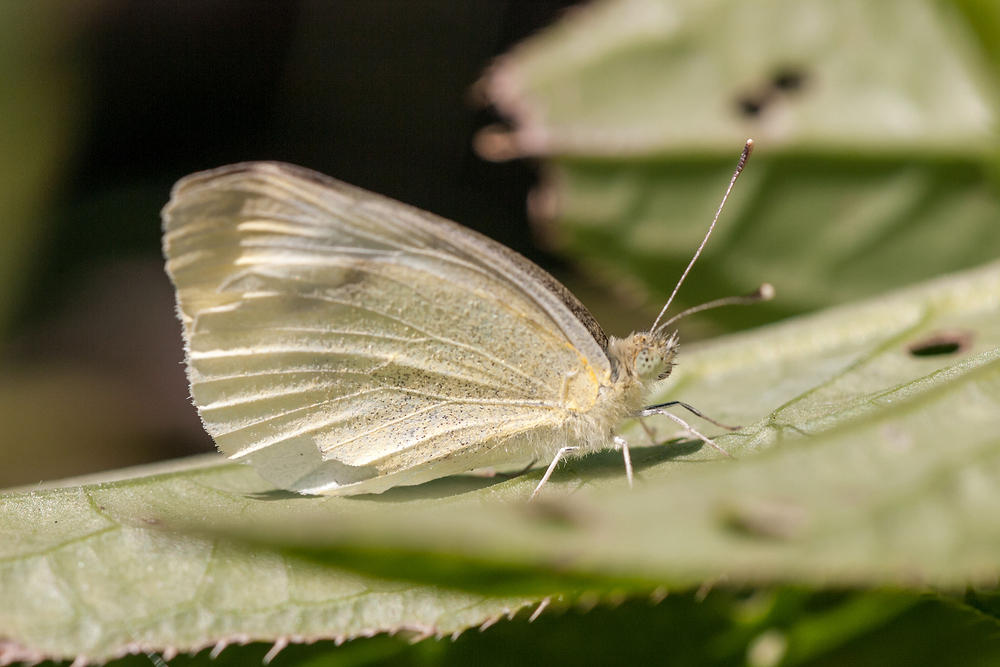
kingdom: Animalia
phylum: Arthropoda
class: Insecta
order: Lepidoptera
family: Pieridae
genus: Pieris
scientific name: Pieris rapae
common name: Small white
